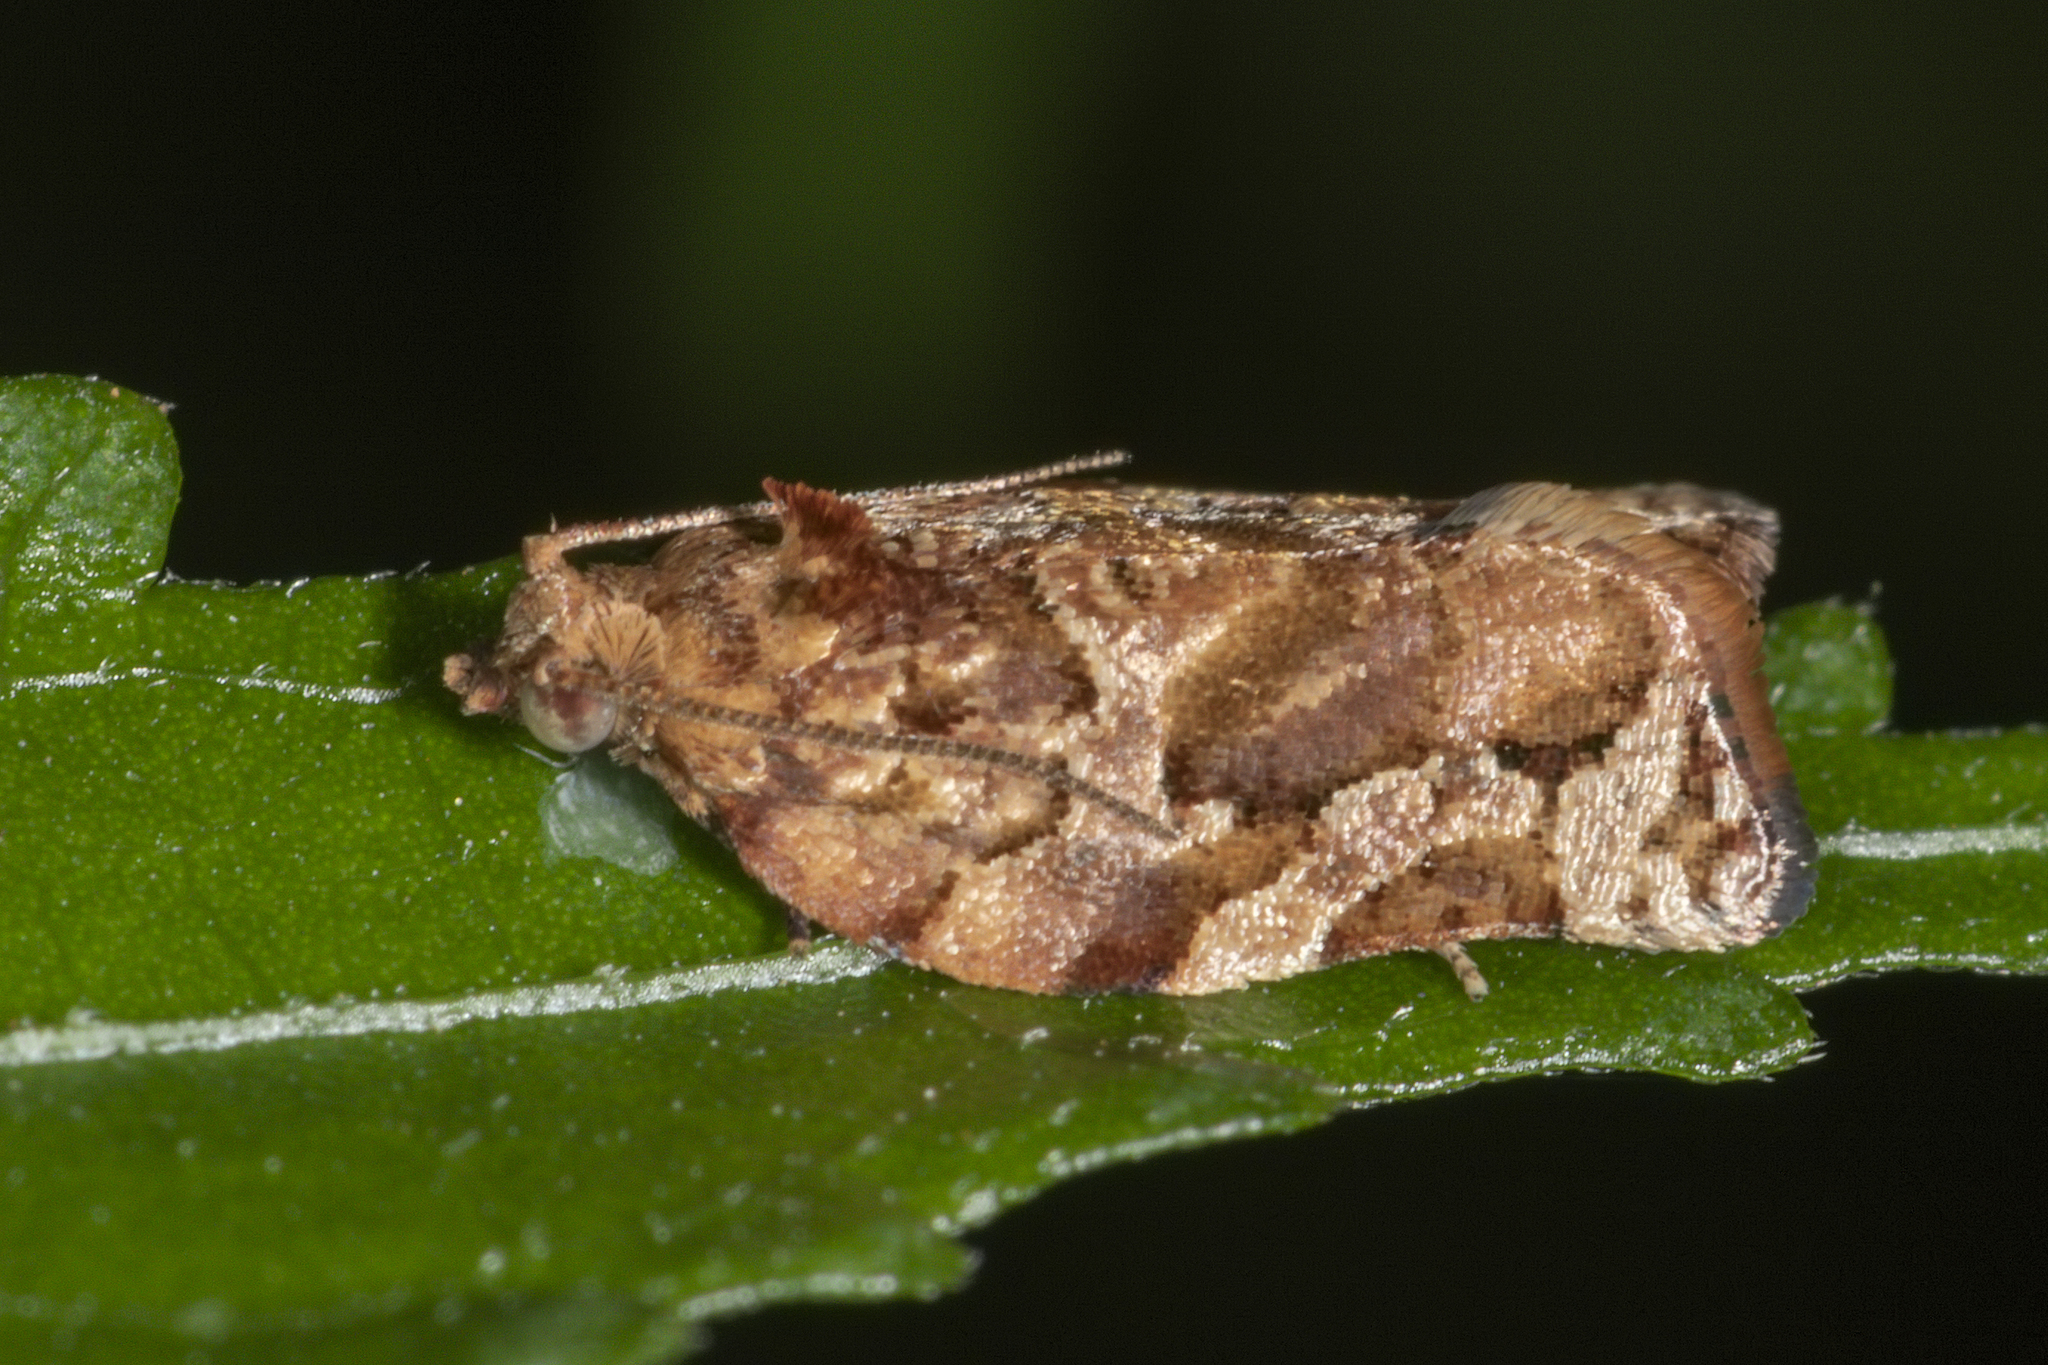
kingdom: Animalia
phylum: Arthropoda
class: Insecta
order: Lepidoptera
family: Tortricidae
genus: Argyrotaenia
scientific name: Argyrotaenia sphaleropa
